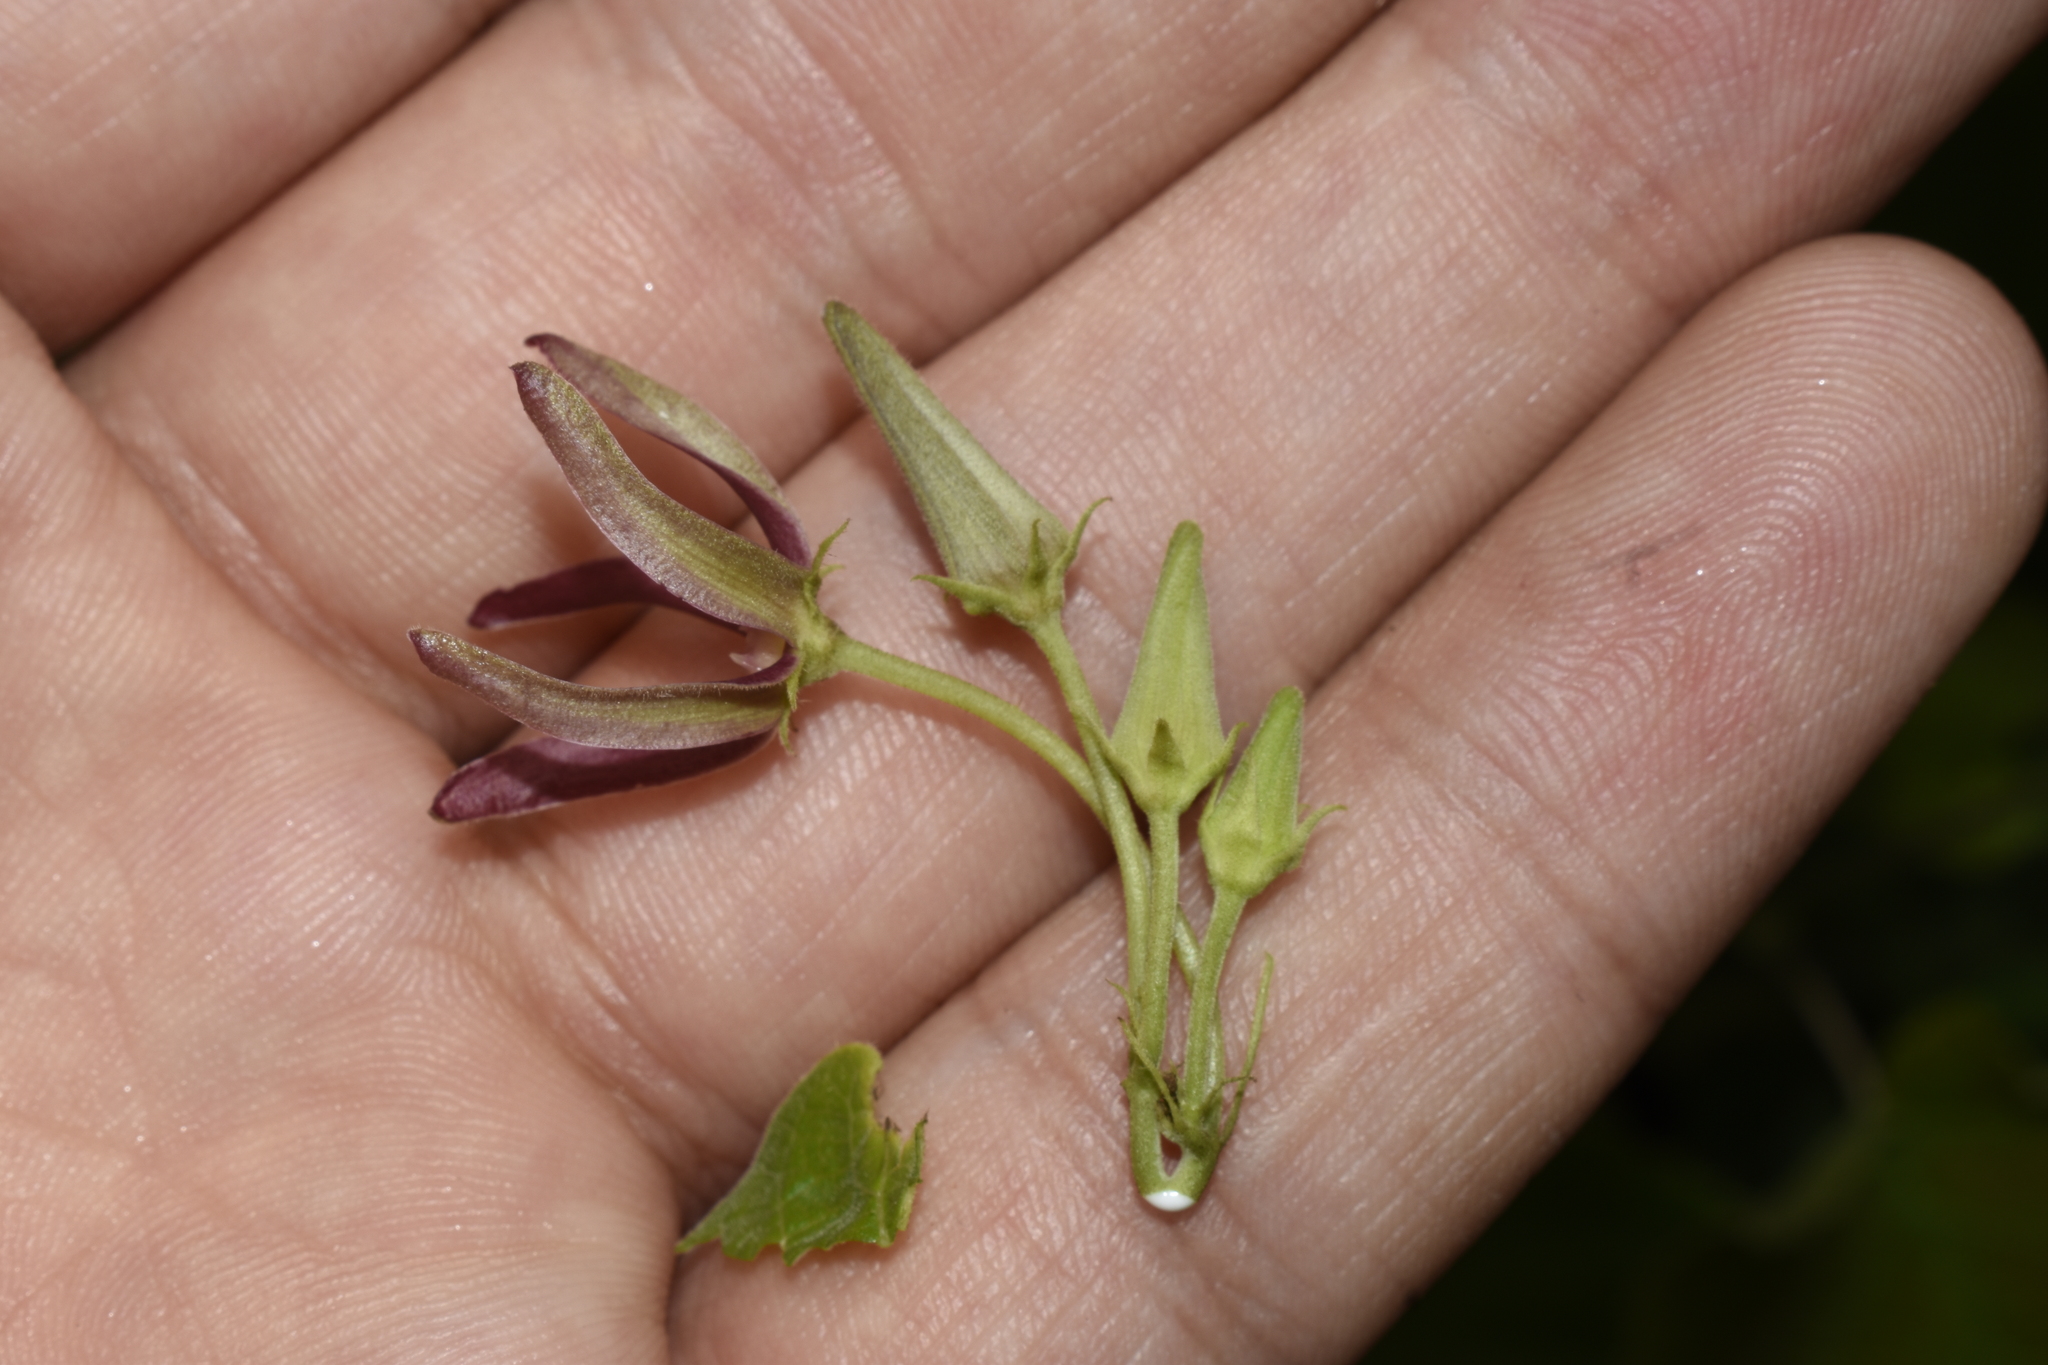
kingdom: Plantae
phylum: Tracheophyta
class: Magnoliopsida
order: Gentianales
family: Apocynaceae
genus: Matelea
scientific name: Matelea obliqua
